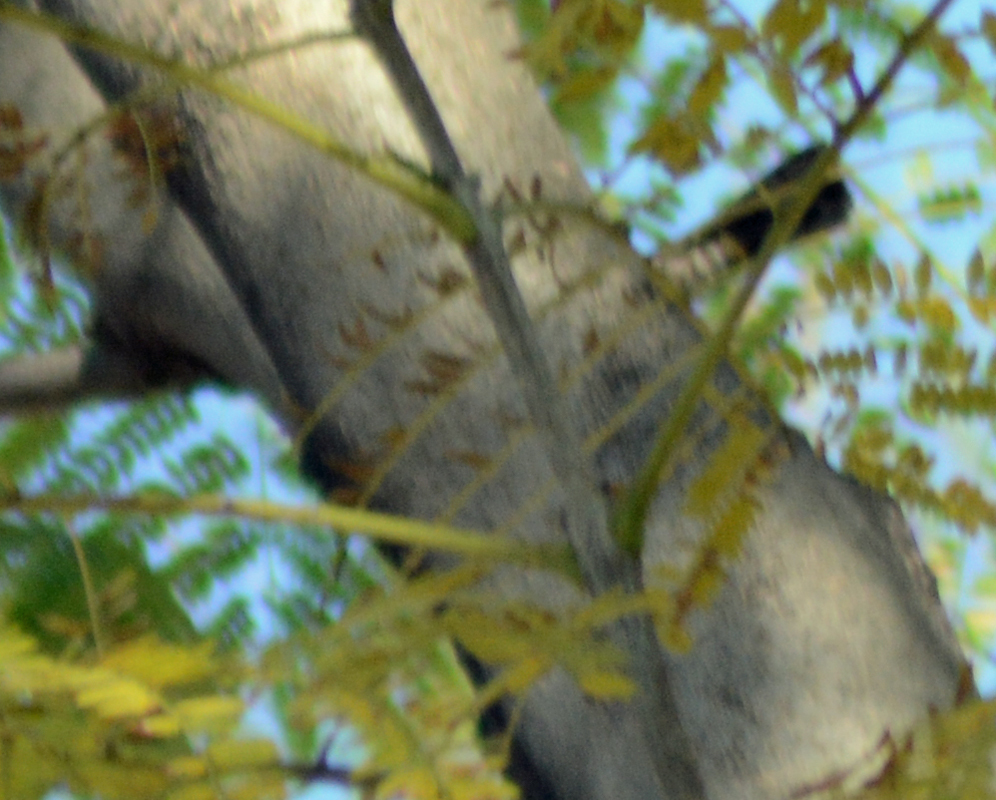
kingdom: Animalia
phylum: Chordata
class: Aves
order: Passeriformes
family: Troglodytidae
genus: Thryomanes
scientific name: Thryomanes bewickii
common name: Bewick's wren
